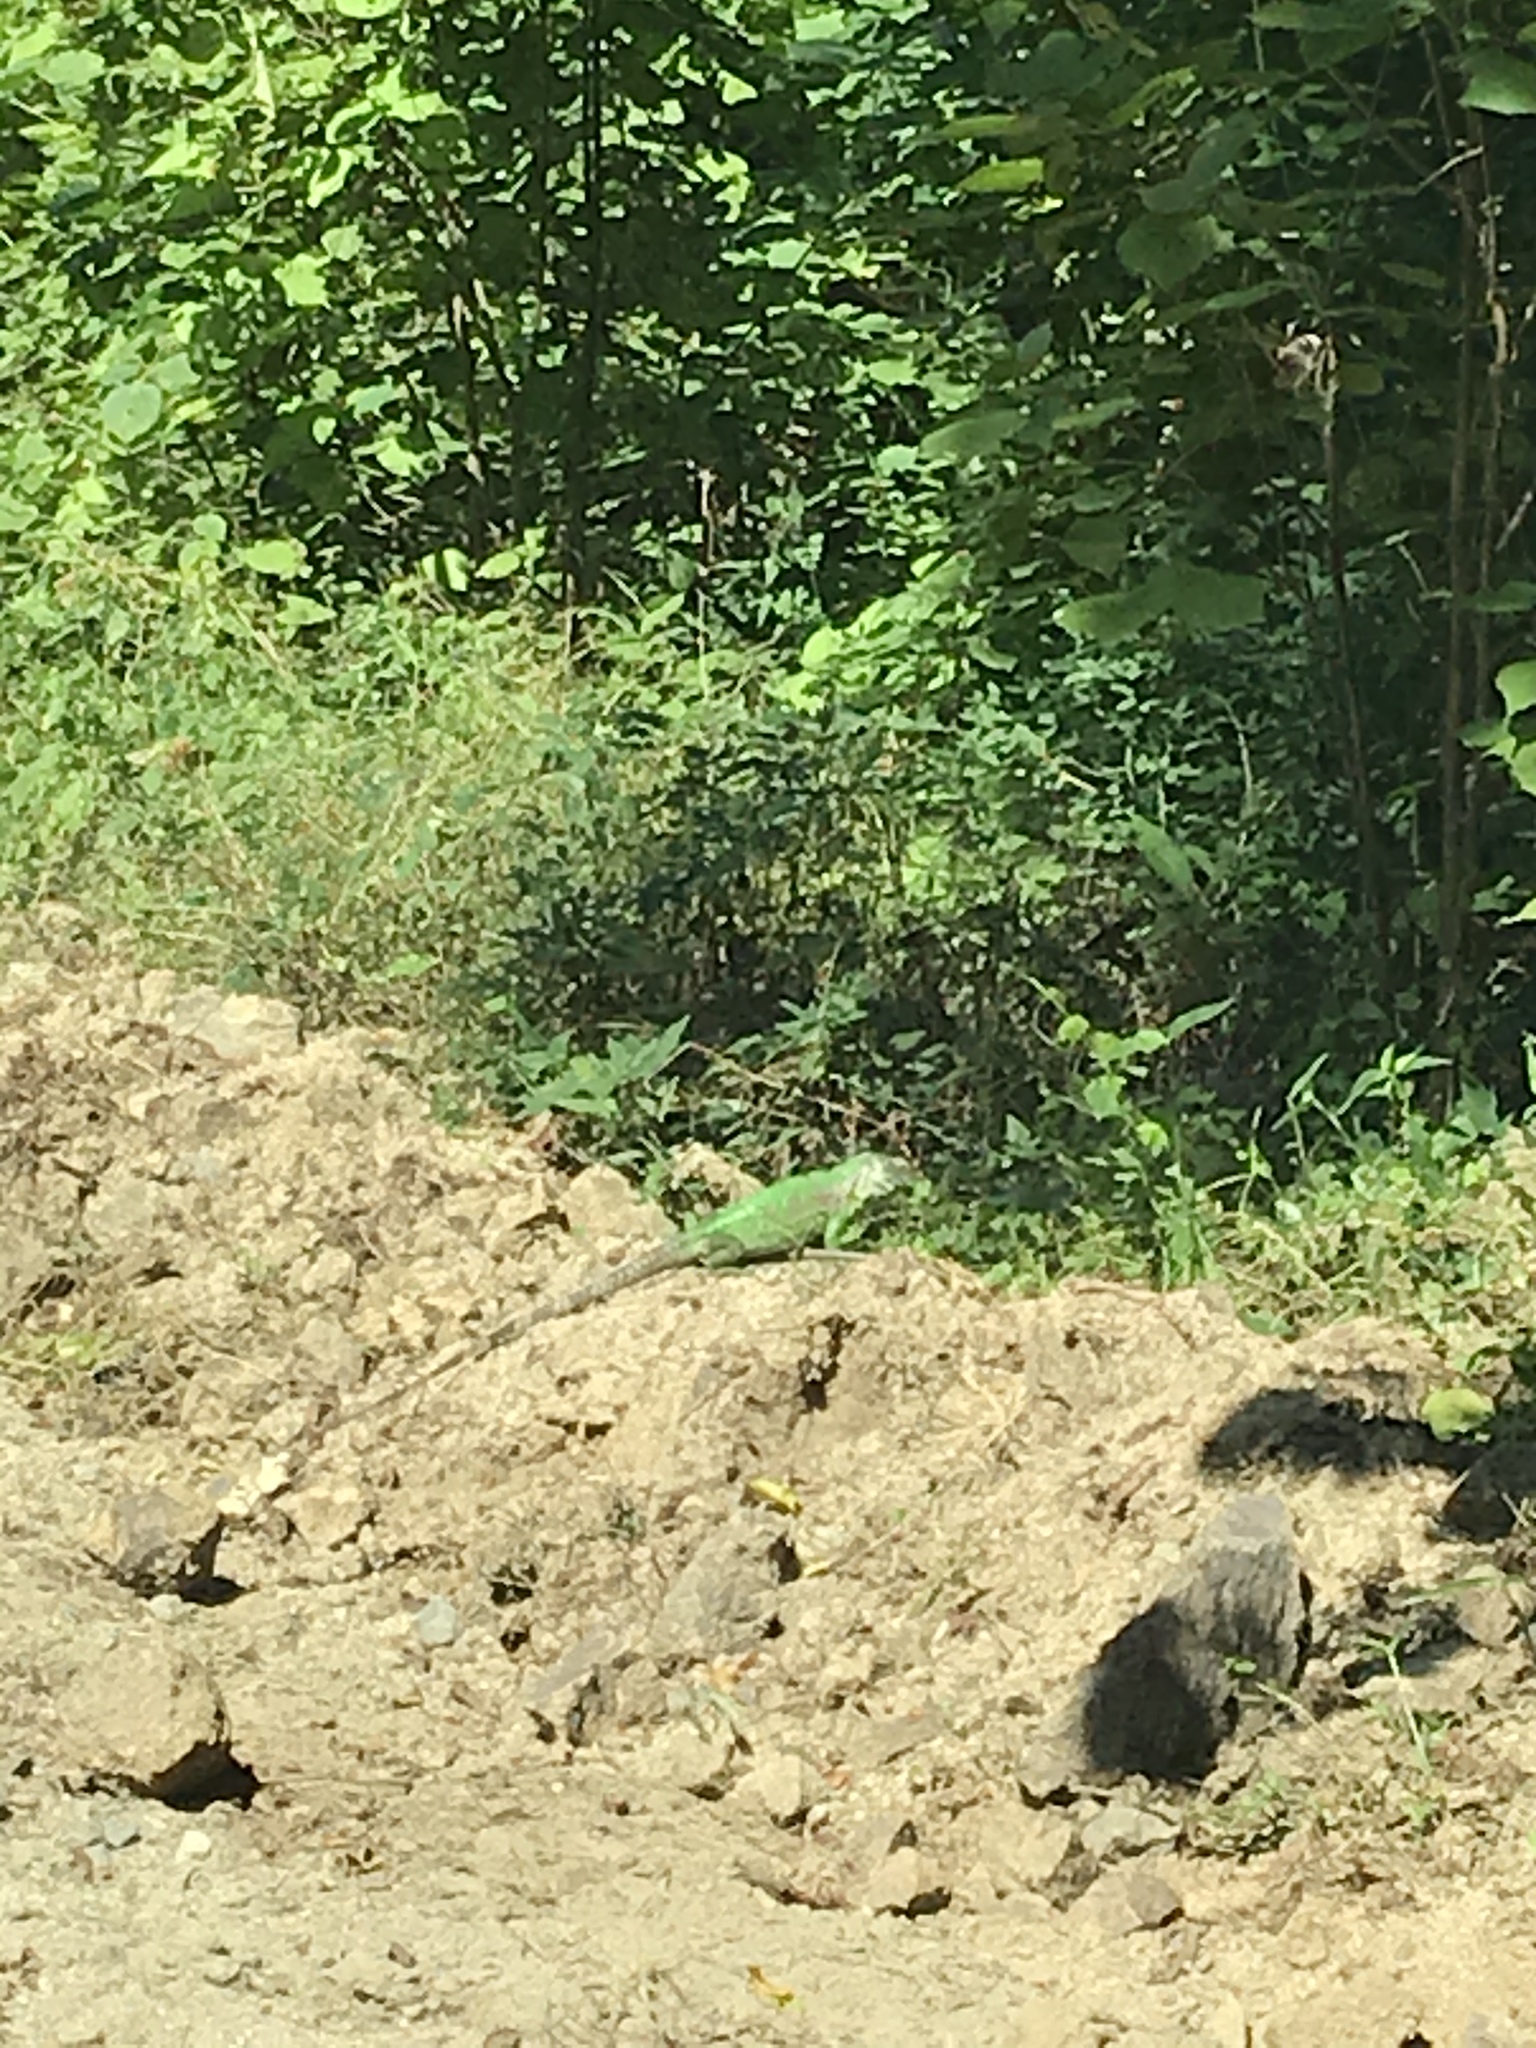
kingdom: Animalia
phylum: Chordata
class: Squamata
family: Iguanidae
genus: Iguana
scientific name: Iguana iguana
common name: Green iguana
